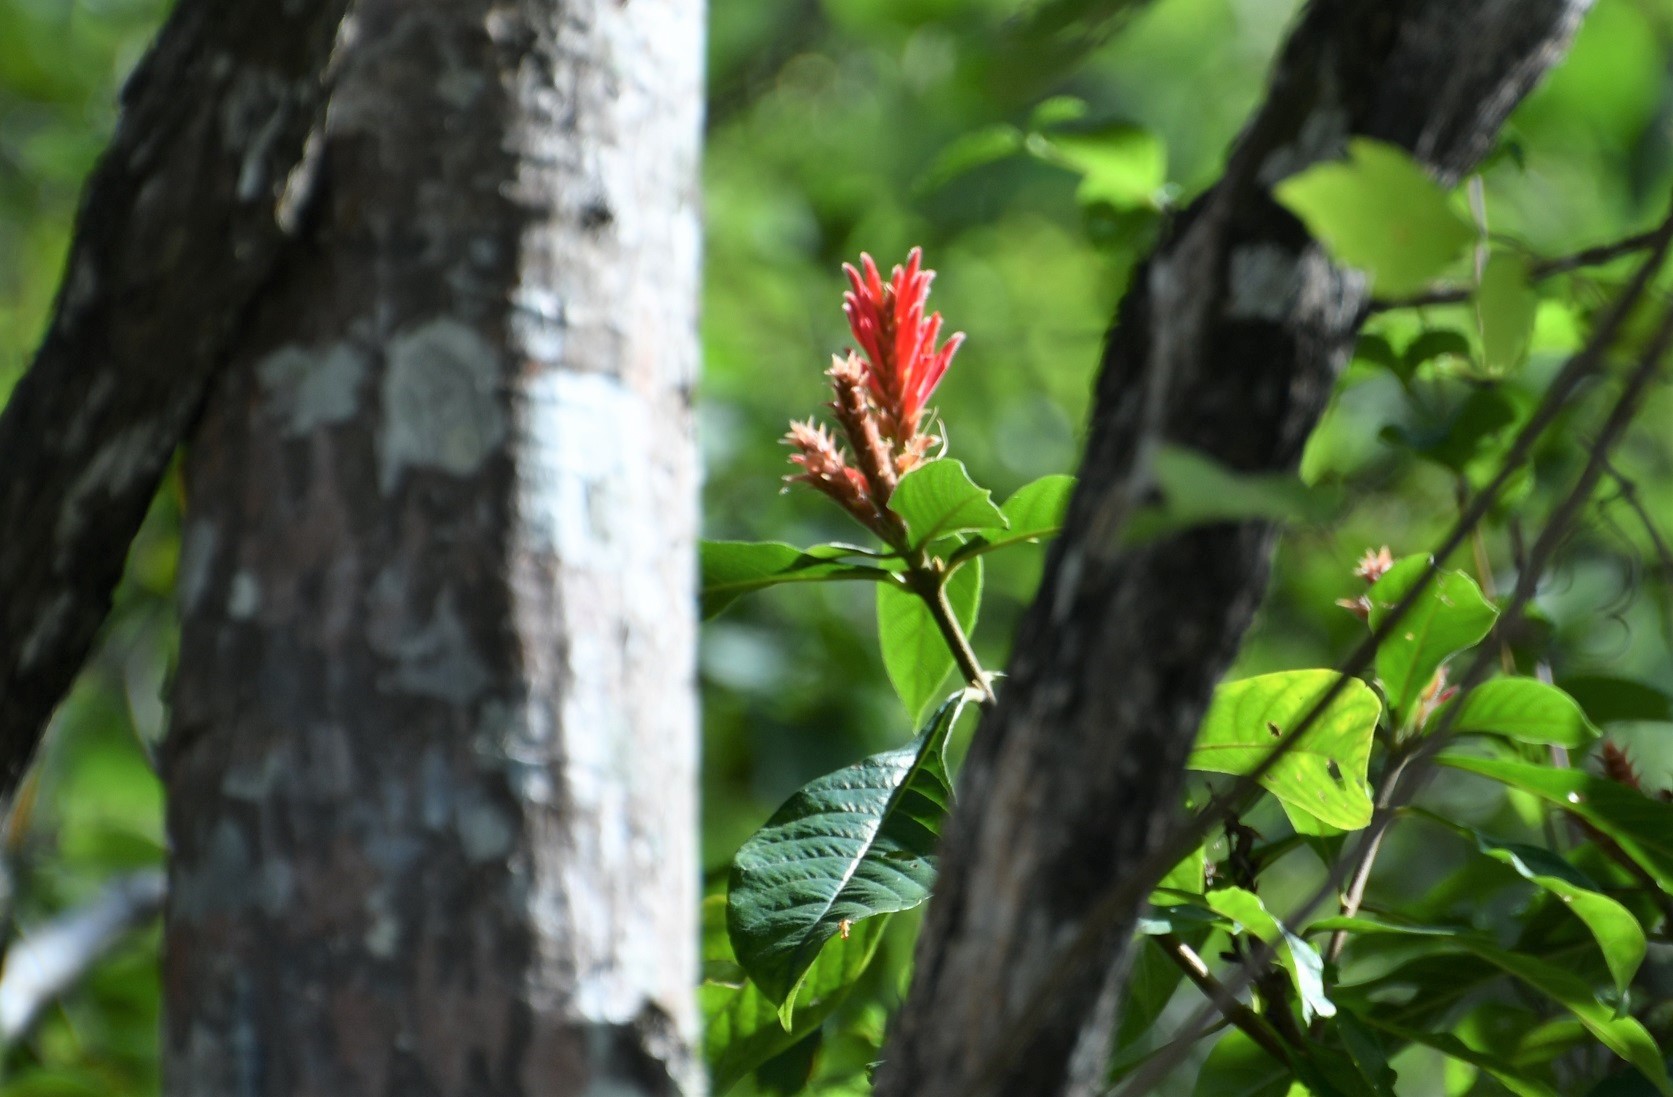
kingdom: Plantae
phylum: Tracheophyta
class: Magnoliopsida
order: Lamiales
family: Acanthaceae
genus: Aphelandra
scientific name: Aphelandra scabra
